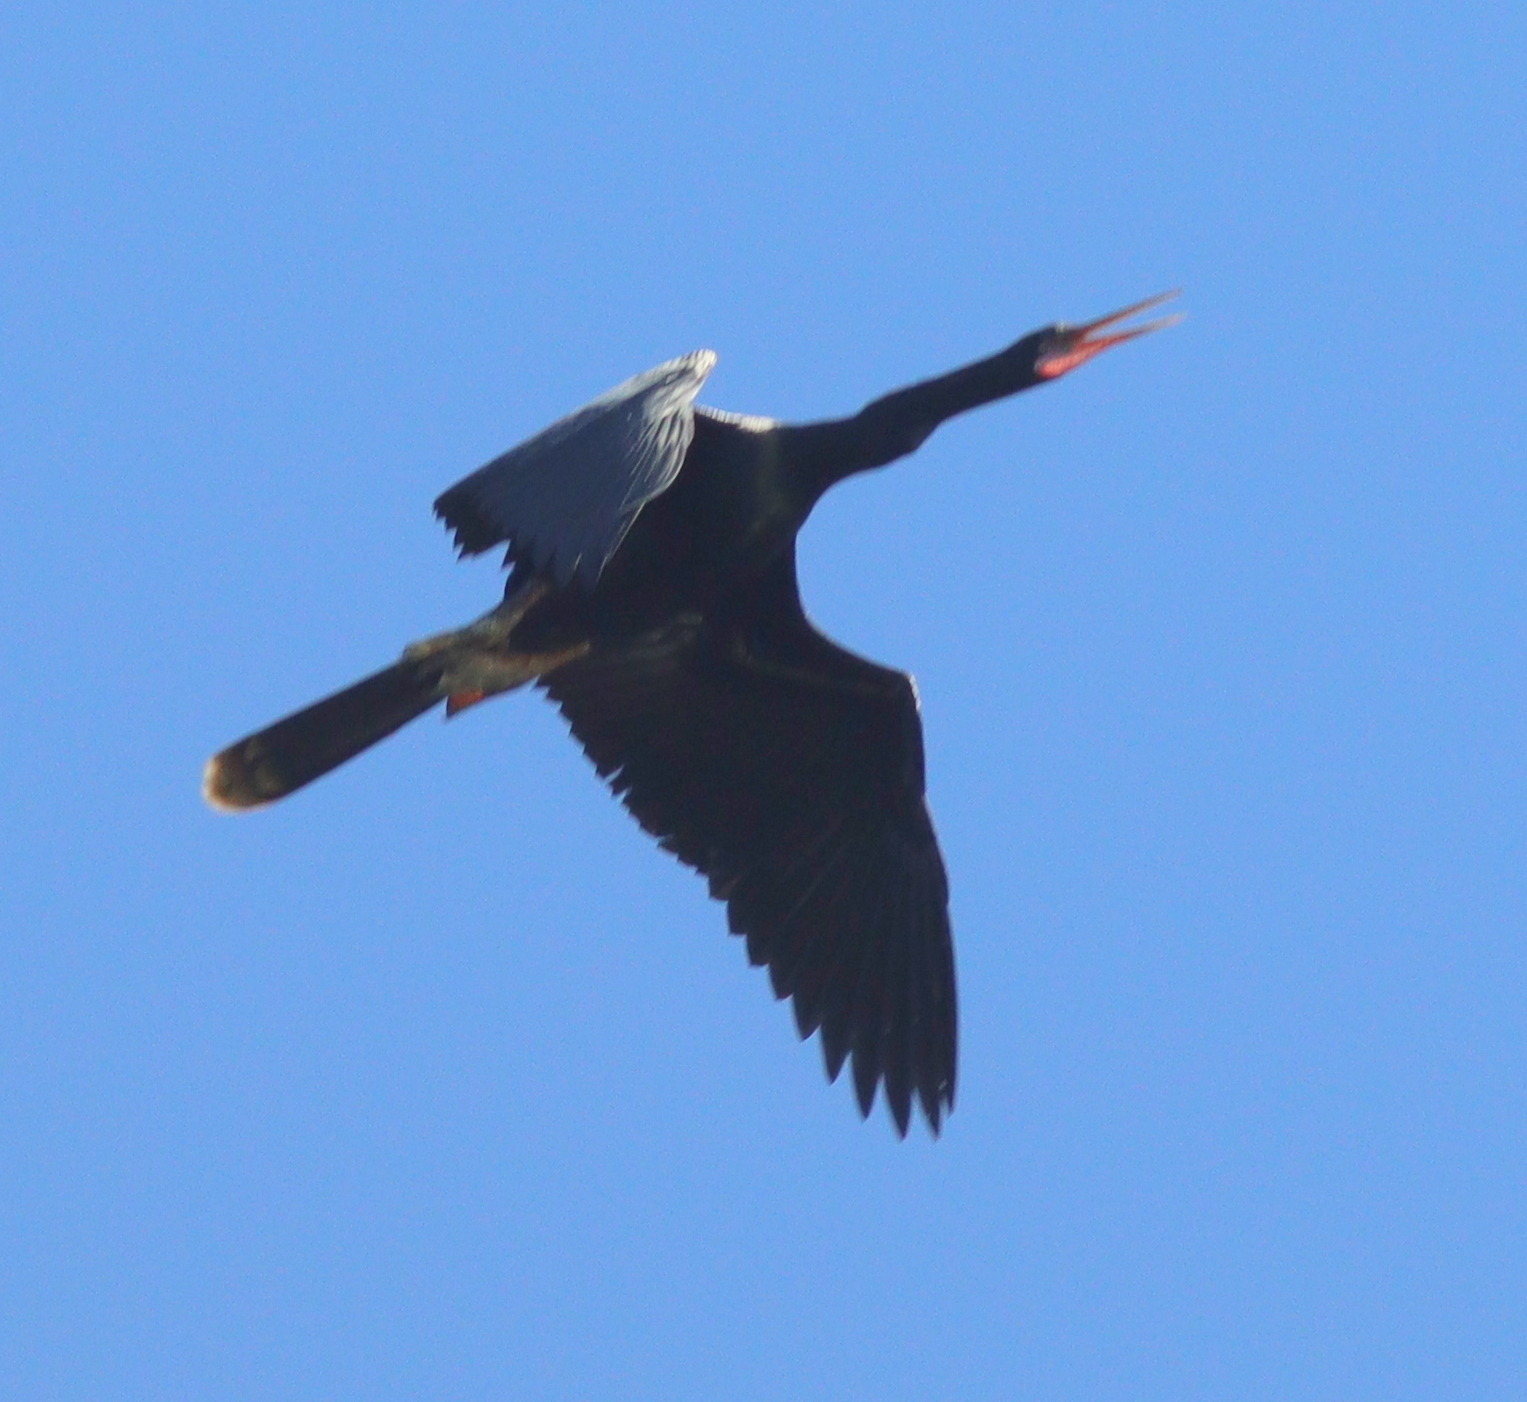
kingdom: Animalia
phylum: Chordata
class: Aves
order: Suliformes
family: Anhingidae
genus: Anhinga
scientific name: Anhinga anhinga
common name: Anhinga
